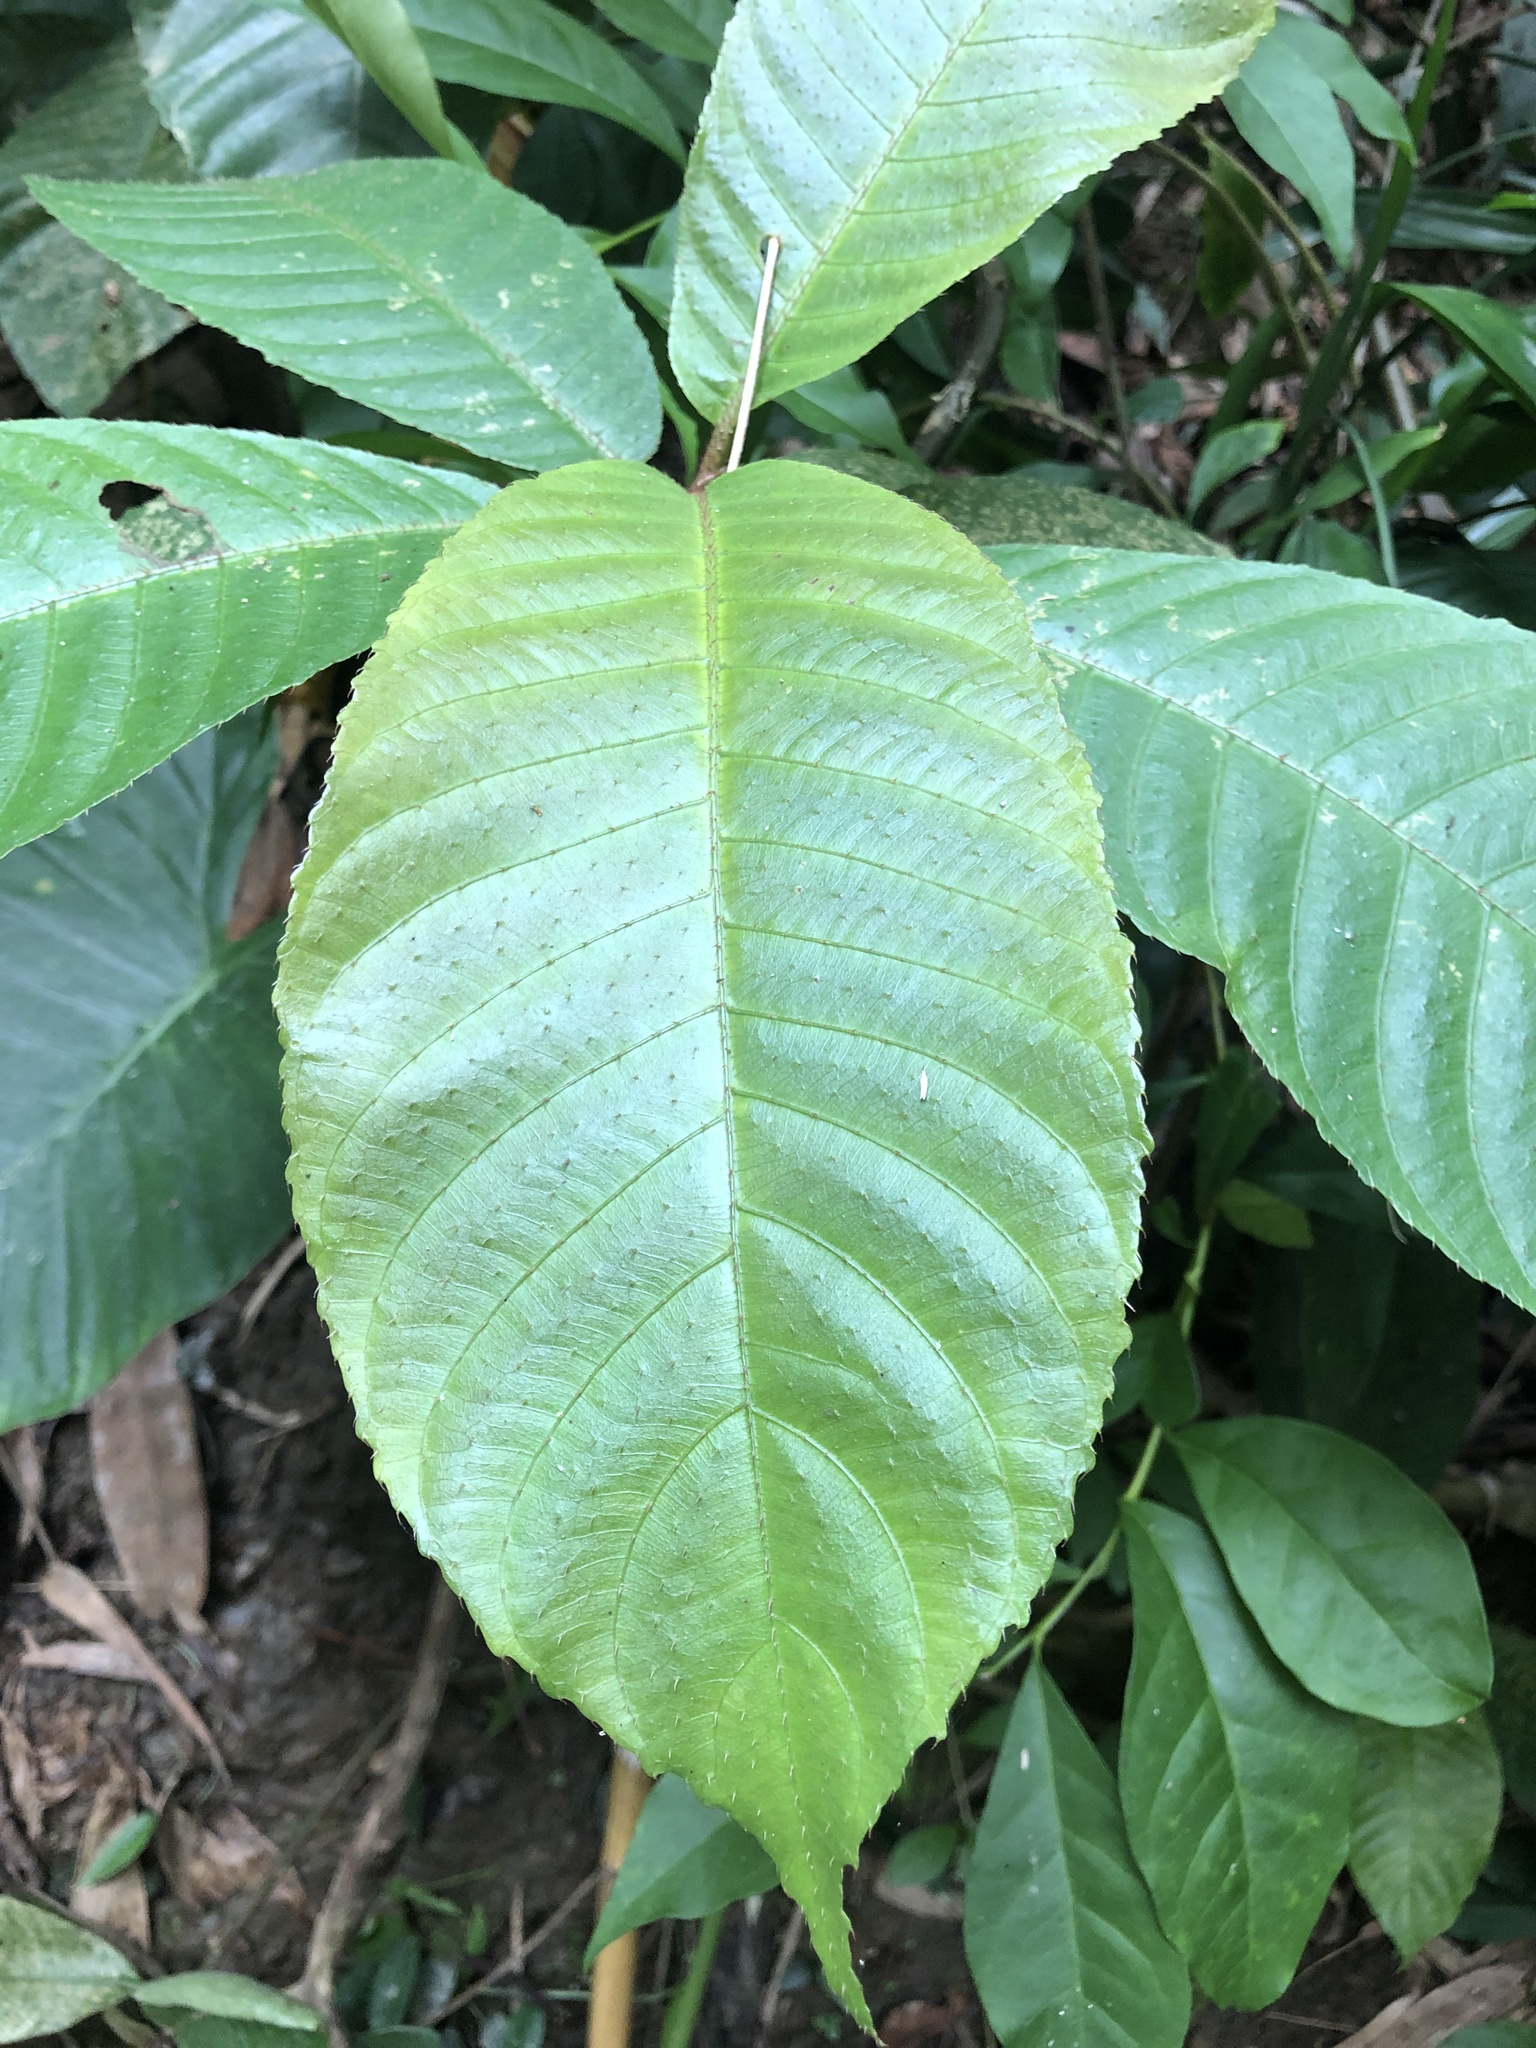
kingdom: Plantae
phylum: Tracheophyta
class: Magnoliopsida
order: Ericales
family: Actinidiaceae
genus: Saurauia
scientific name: Saurauia tristyla
